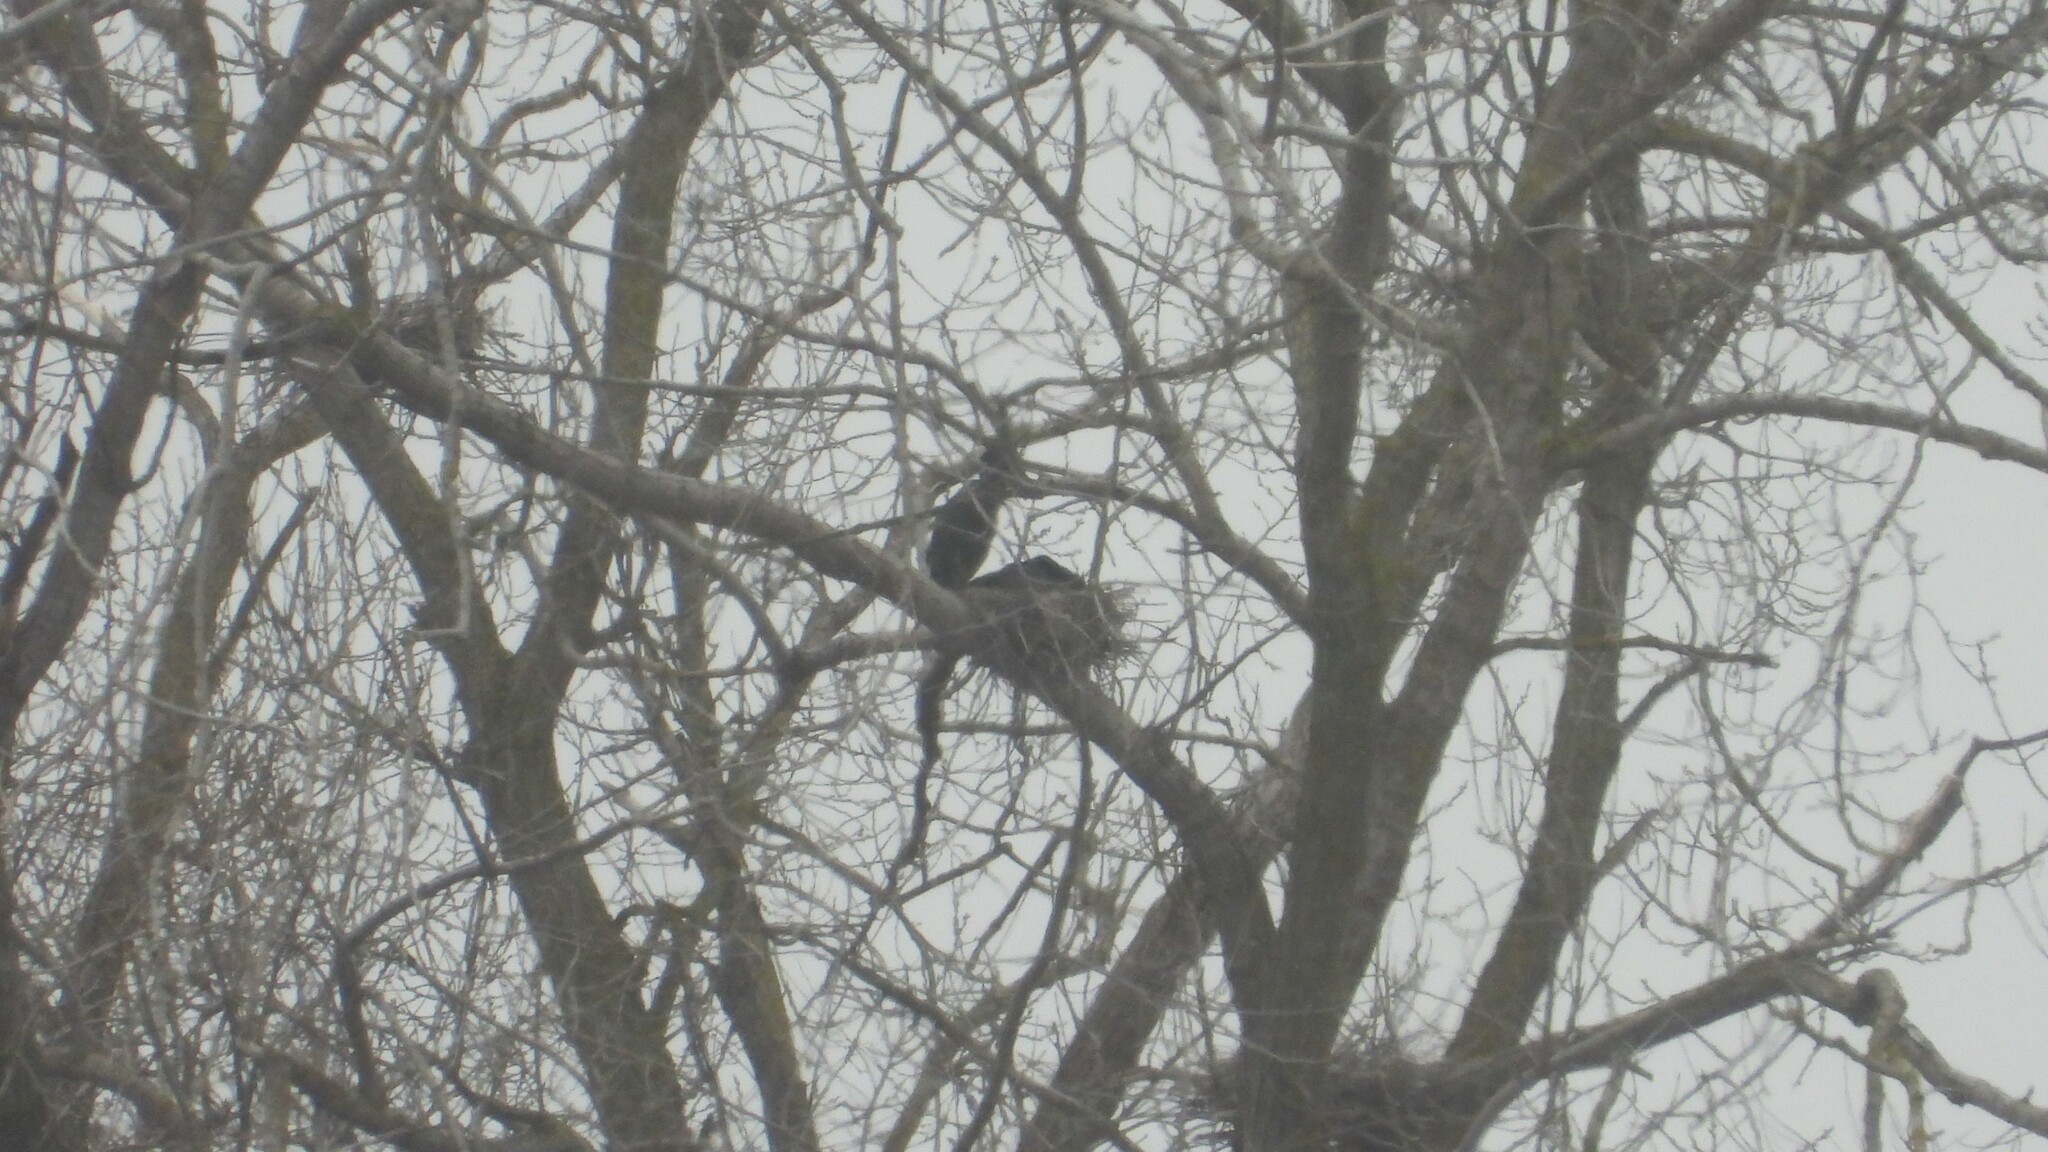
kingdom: Animalia
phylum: Chordata
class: Aves
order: Suliformes
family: Phalacrocoracidae
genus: Phalacrocorax
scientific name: Phalacrocorax auritus
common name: Double-crested cormorant
